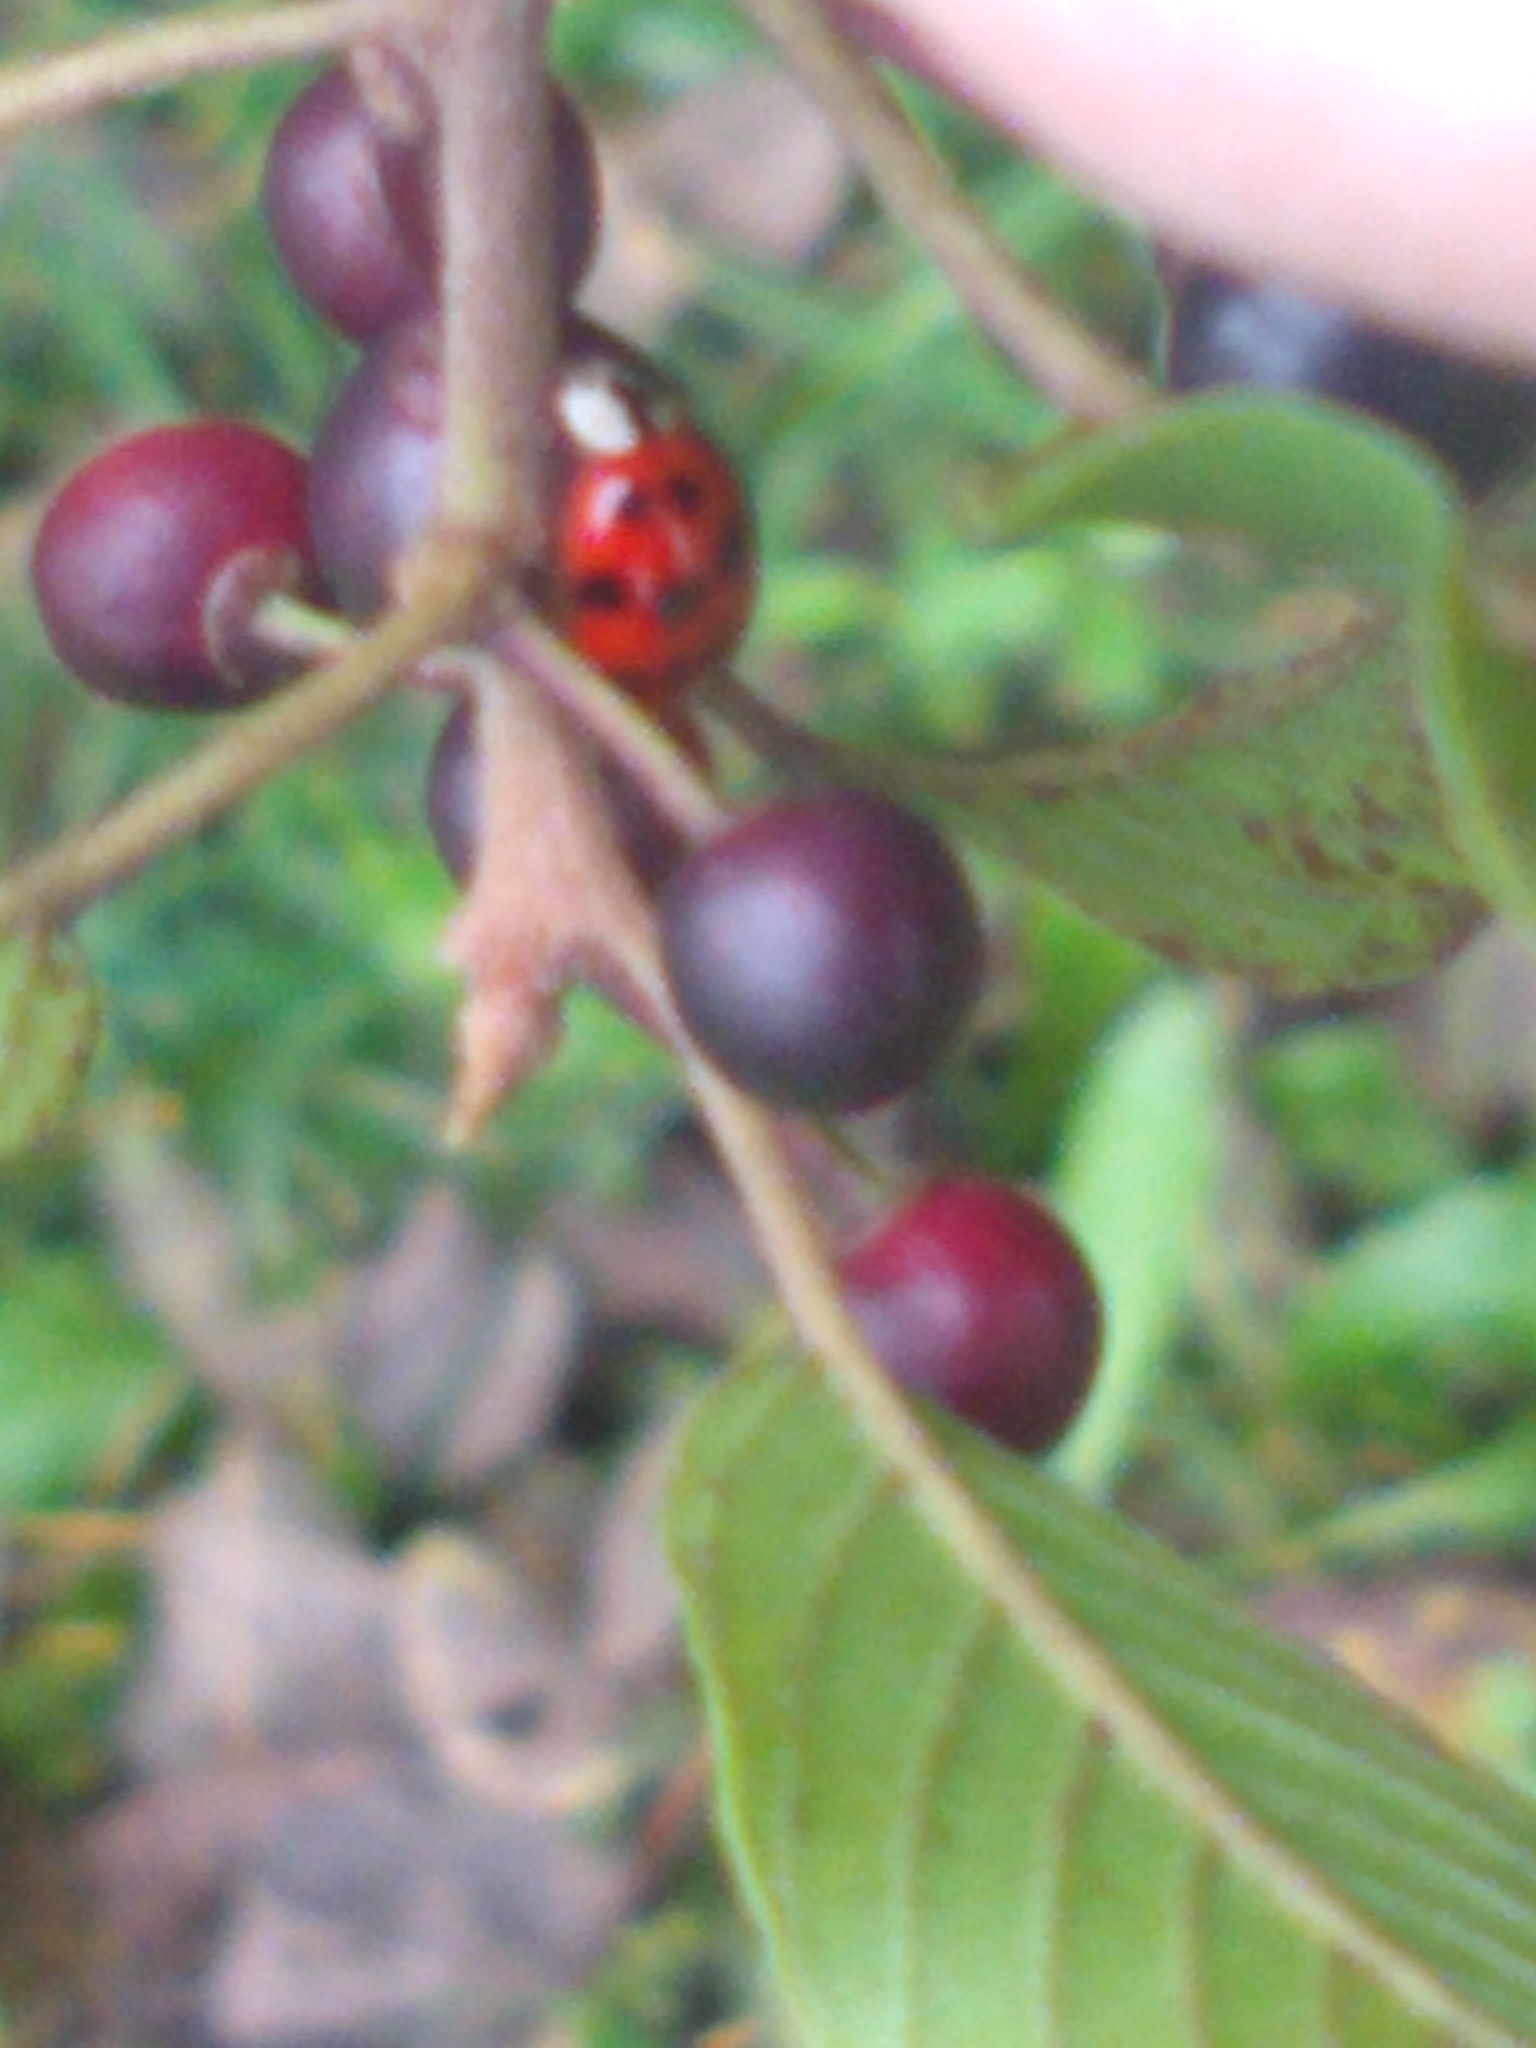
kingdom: Animalia
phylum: Arthropoda
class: Insecta
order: Coleoptera
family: Coccinellidae
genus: Harmonia
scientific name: Harmonia axyridis
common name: Harlequin ladybird
